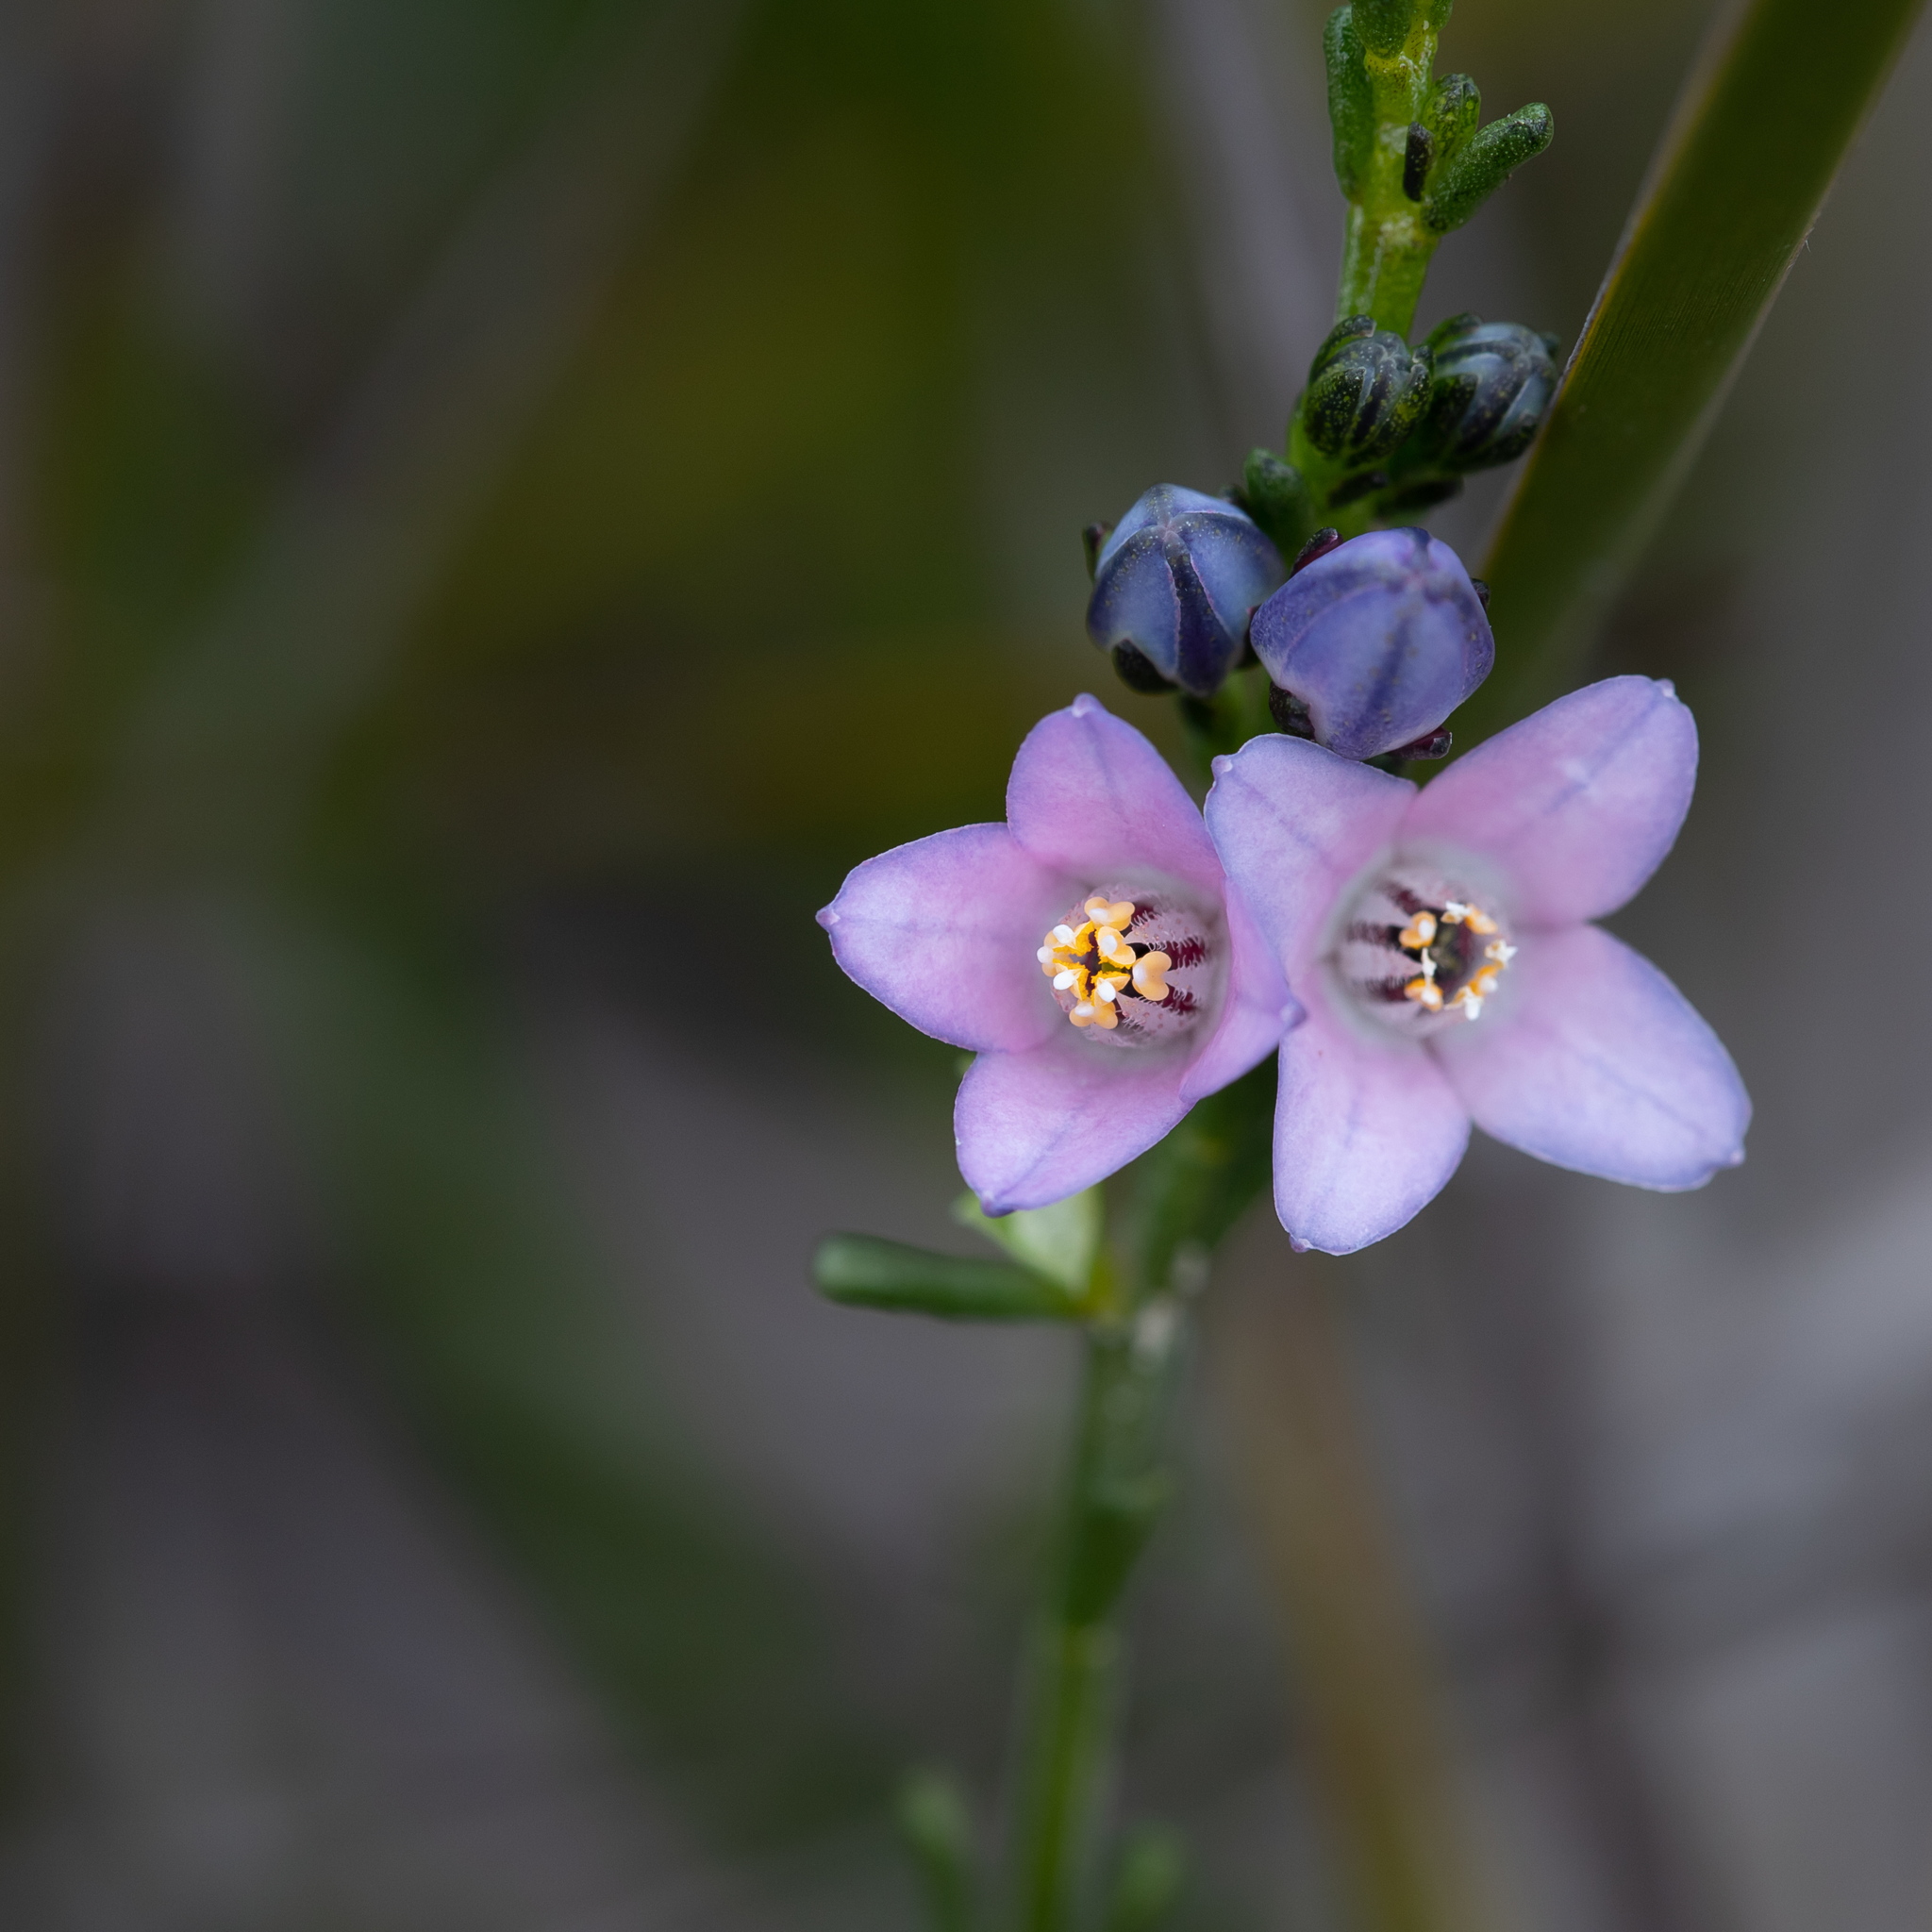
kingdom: Plantae
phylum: Tracheophyta
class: Magnoliopsida
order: Sapindales
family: Rutaceae
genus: Cyanothamnus
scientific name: Cyanothamnus coerulescens
